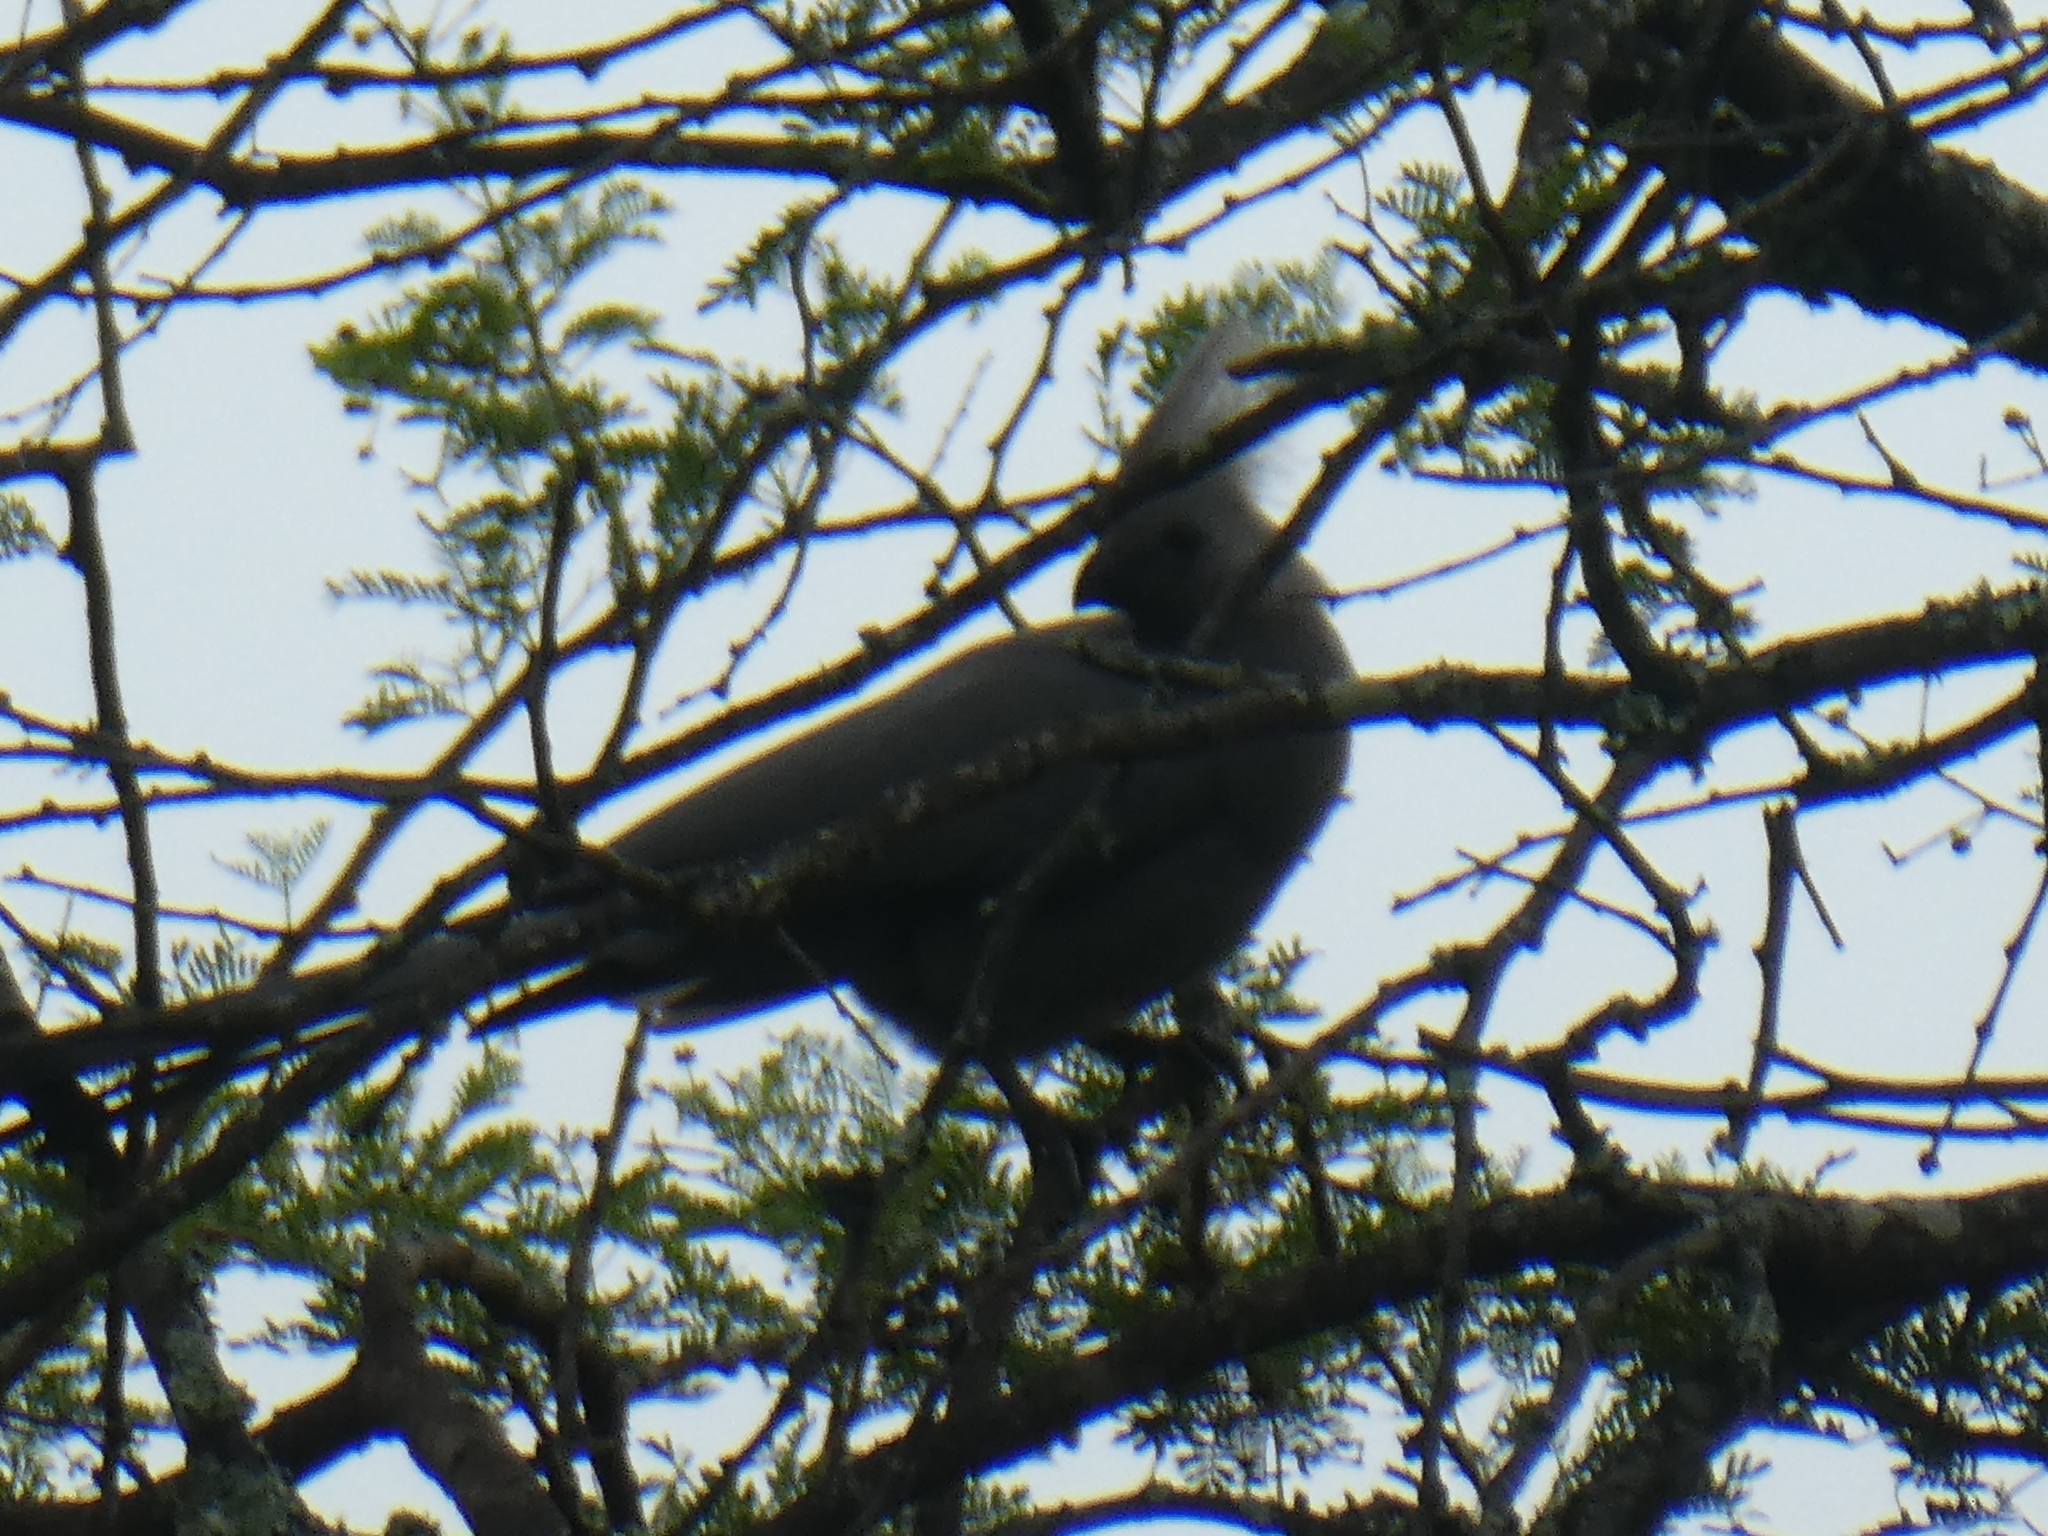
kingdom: Animalia
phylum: Chordata
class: Aves
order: Musophagiformes
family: Musophagidae
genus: Corythaixoides
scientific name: Corythaixoides concolor
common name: Grey go-away-bird
